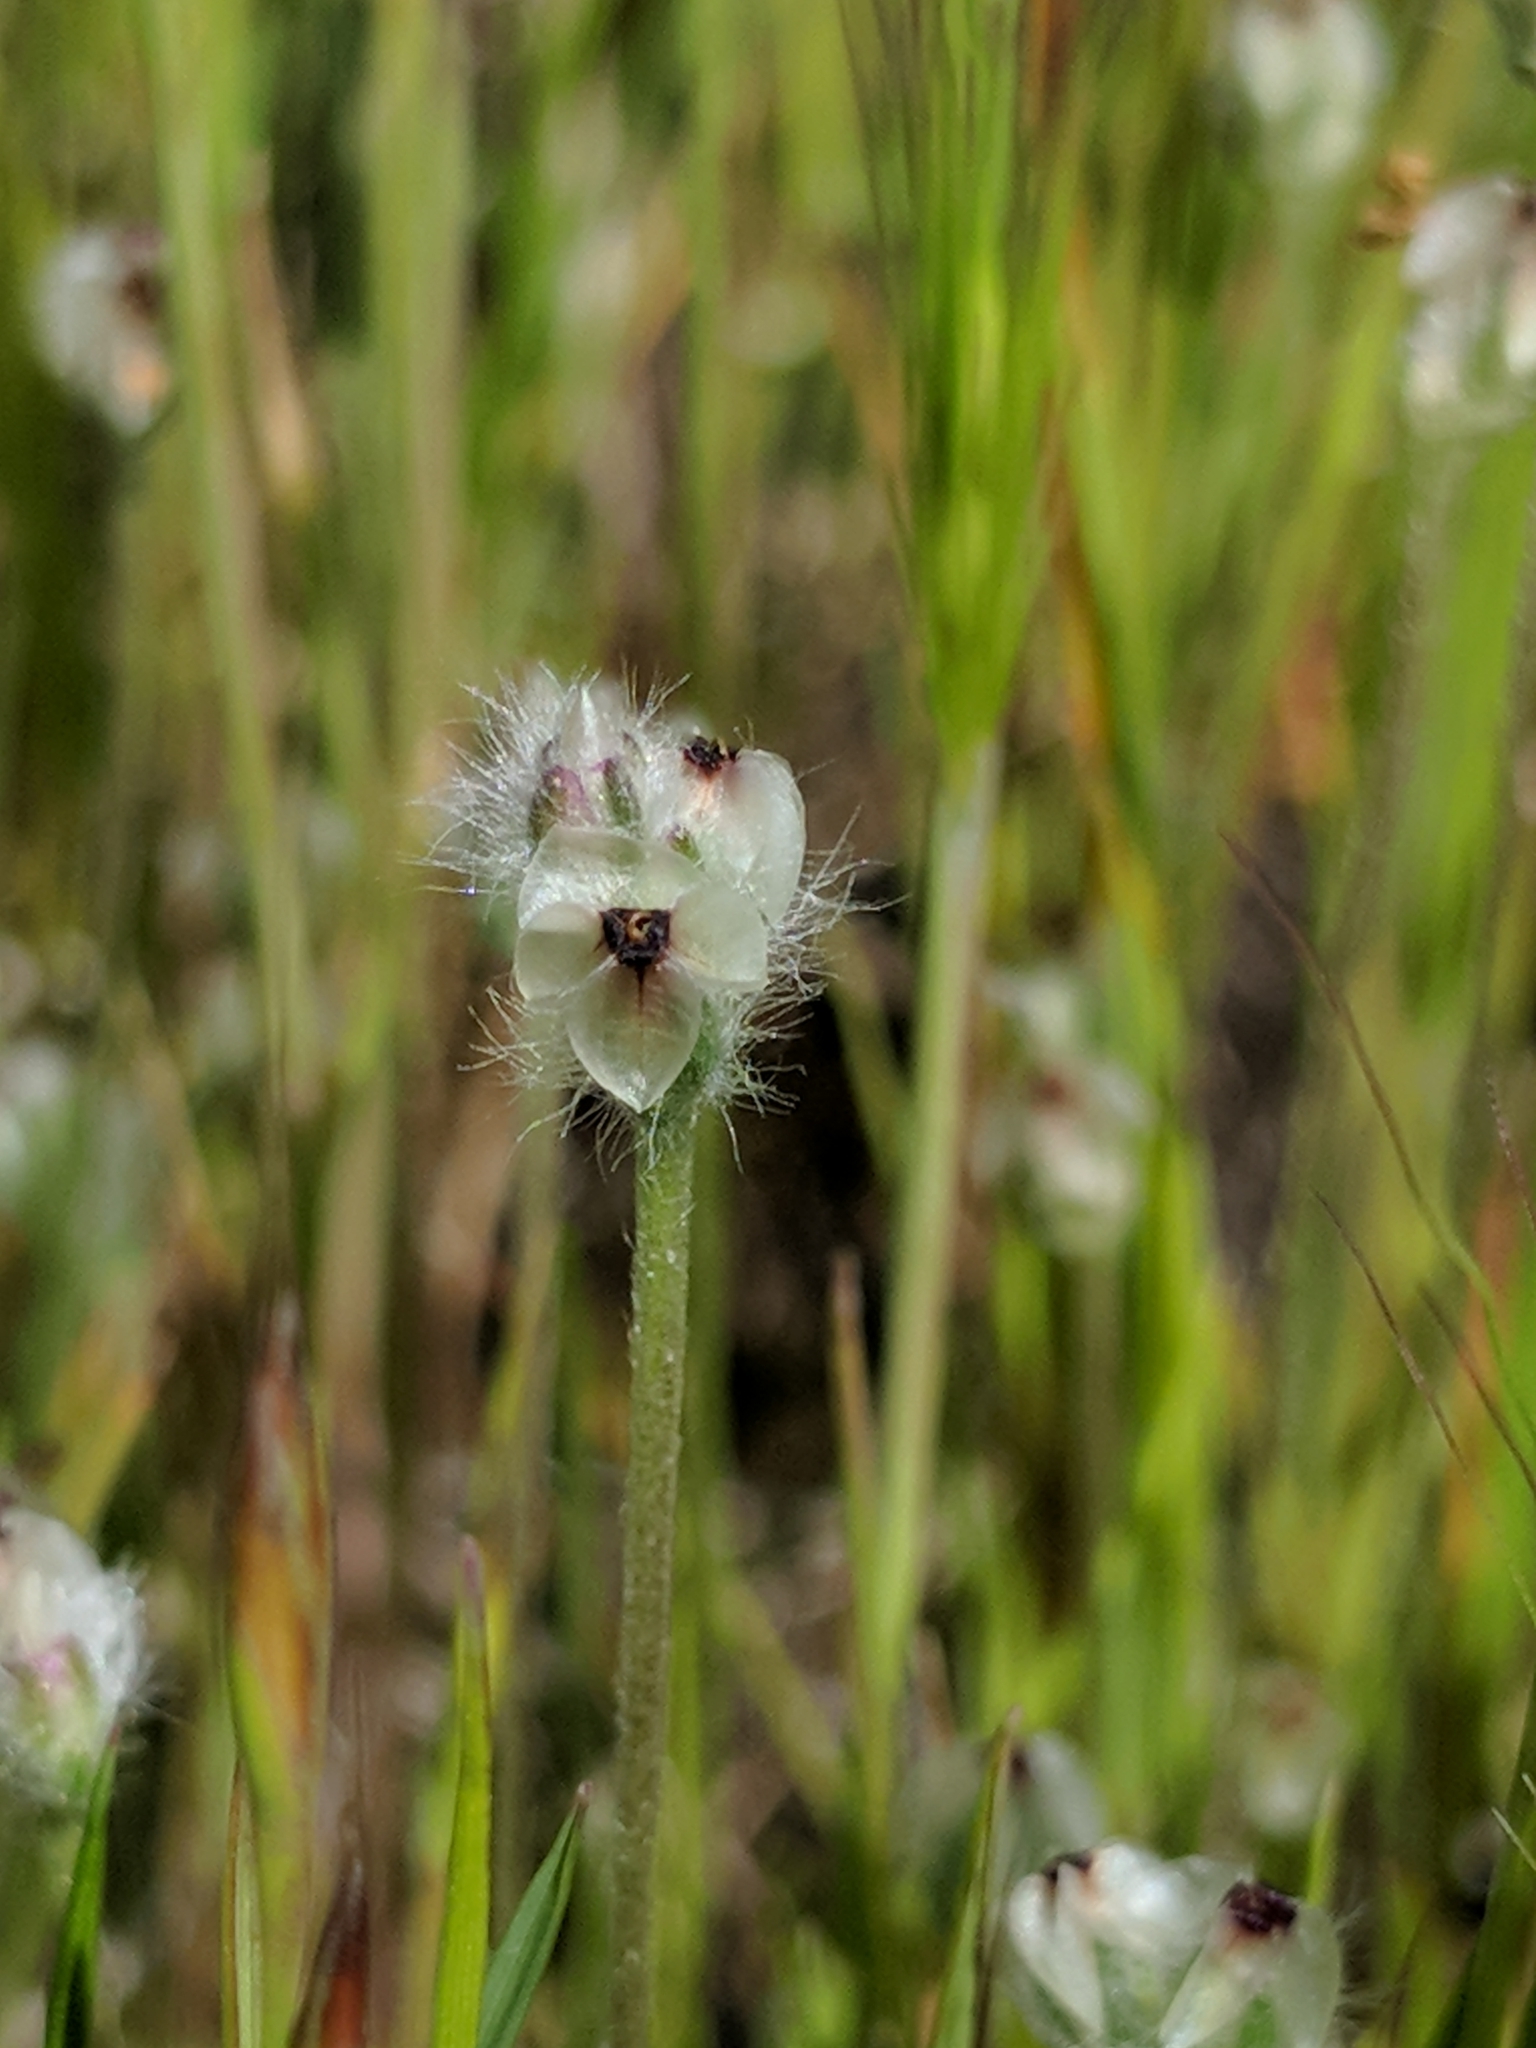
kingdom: Plantae
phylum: Tracheophyta
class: Magnoliopsida
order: Lamiales
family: Plantaginaceae
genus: Plantago
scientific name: Plantago erecta
